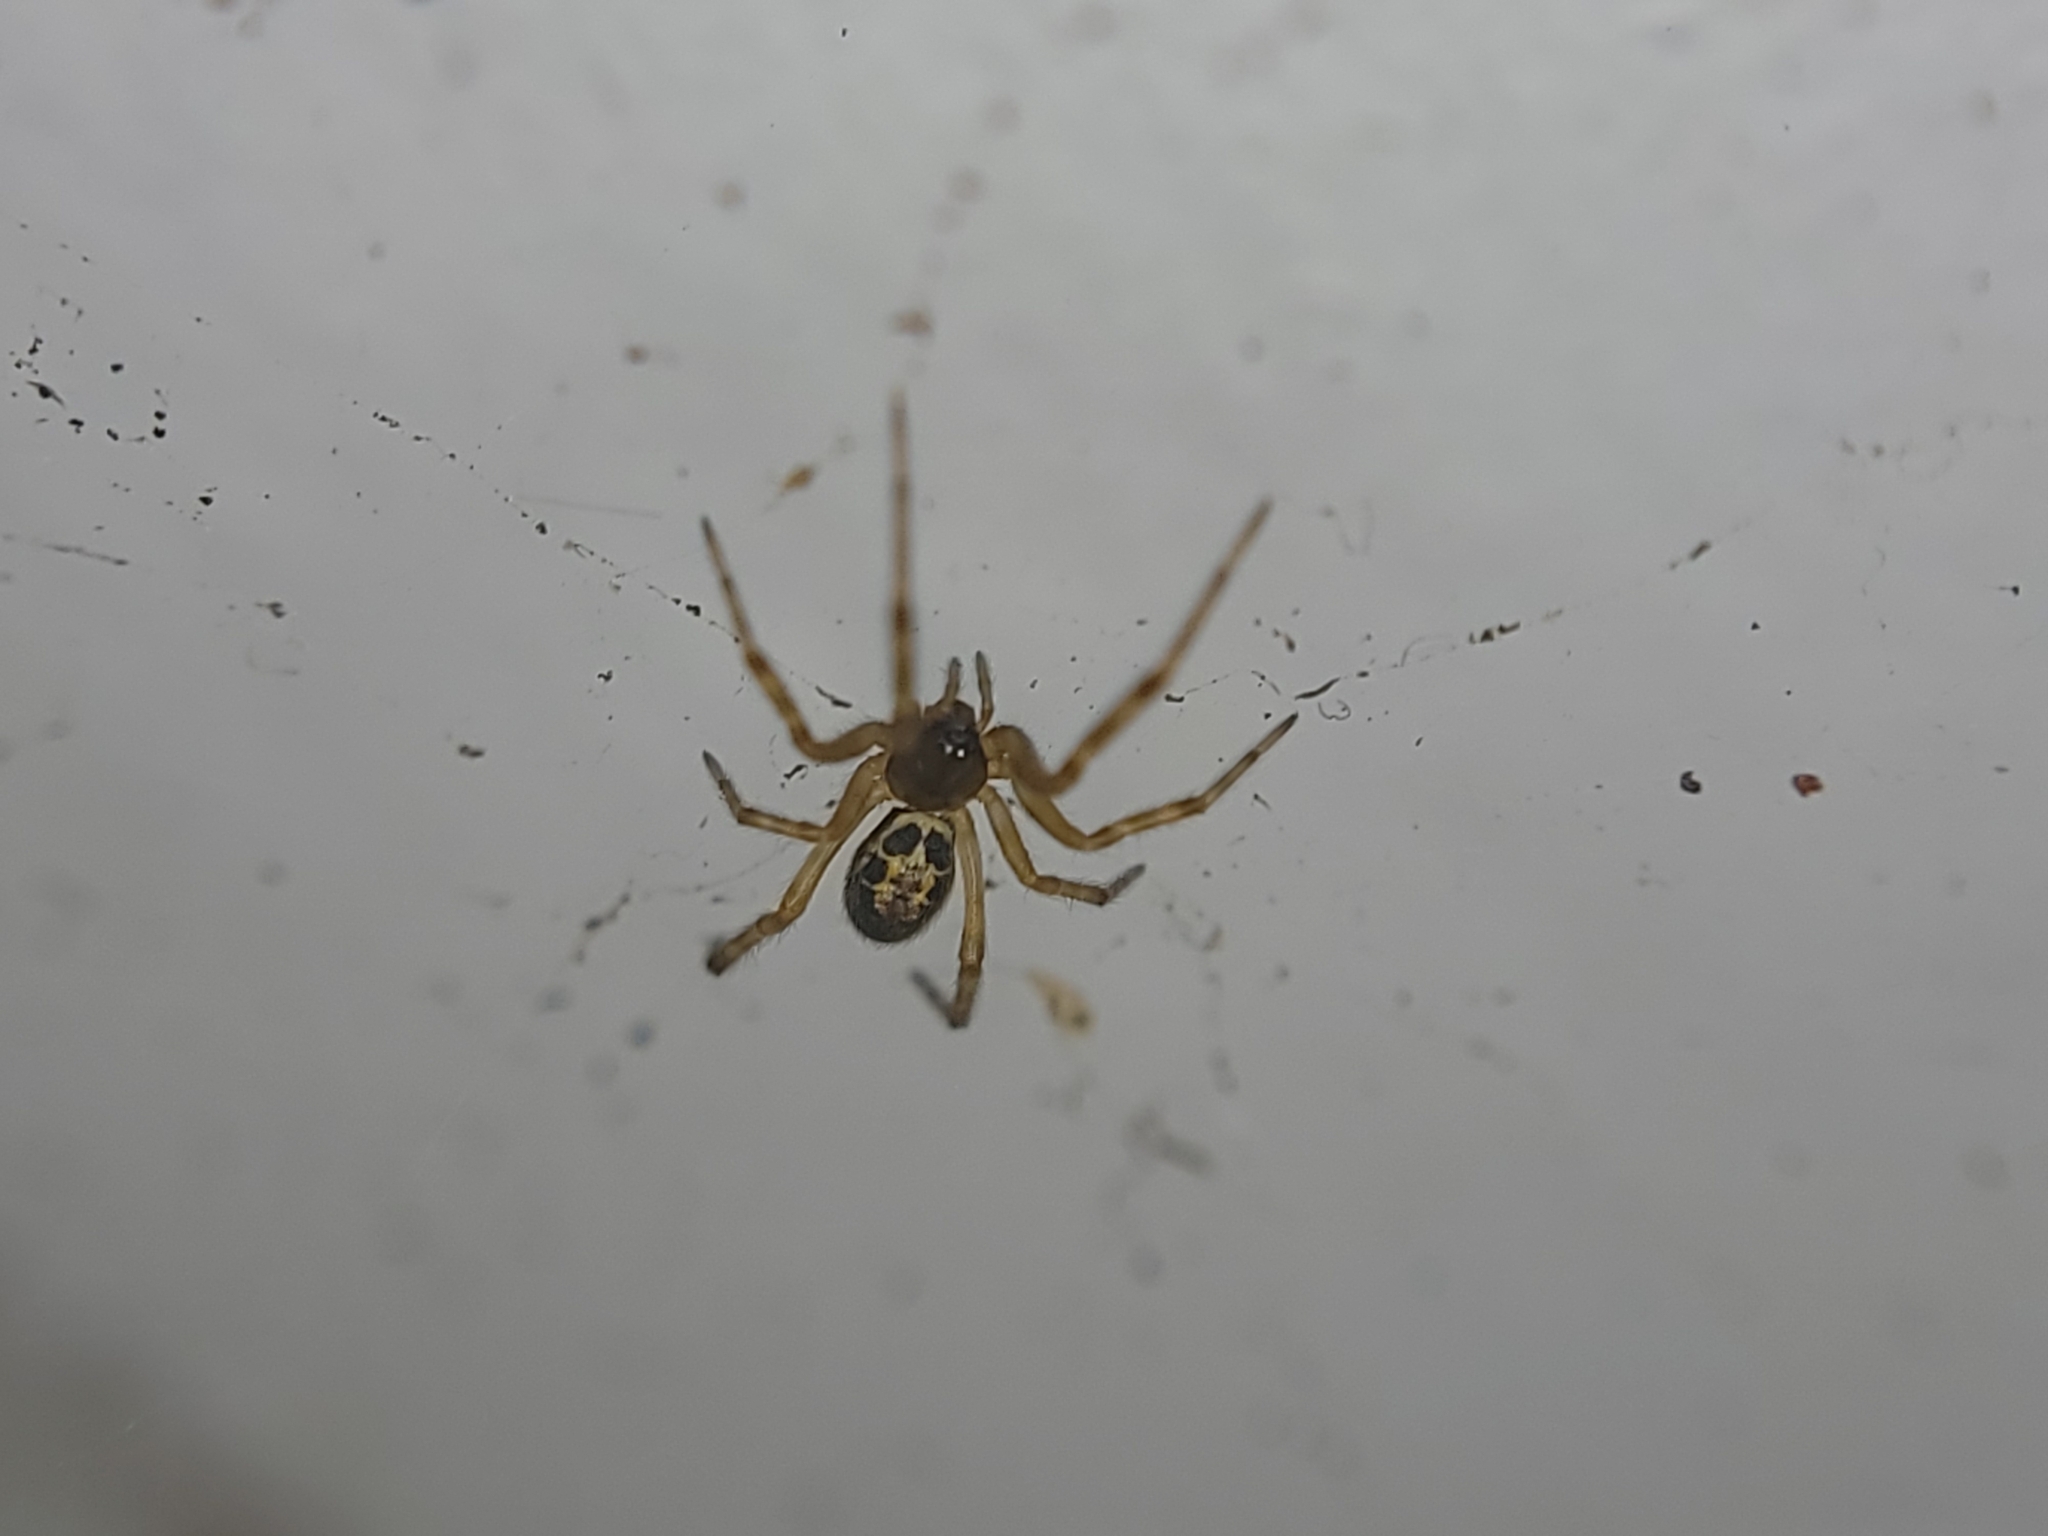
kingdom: Animalia
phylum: Arthropoda
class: Arachnida
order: Araneae
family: Theridiidae
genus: Steatoda
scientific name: Steatoda nobilis
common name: Cobweb weaver
